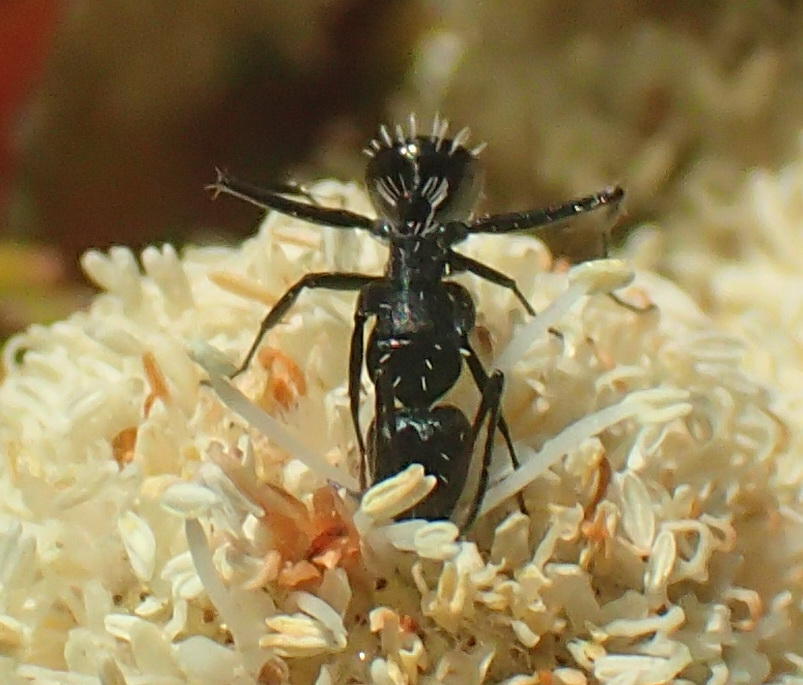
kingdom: Animalia
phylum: Arthropoda
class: Insecta
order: Hymenoptera
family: Formicidae
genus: Camponotus
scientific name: Camponotus niveosetosus
